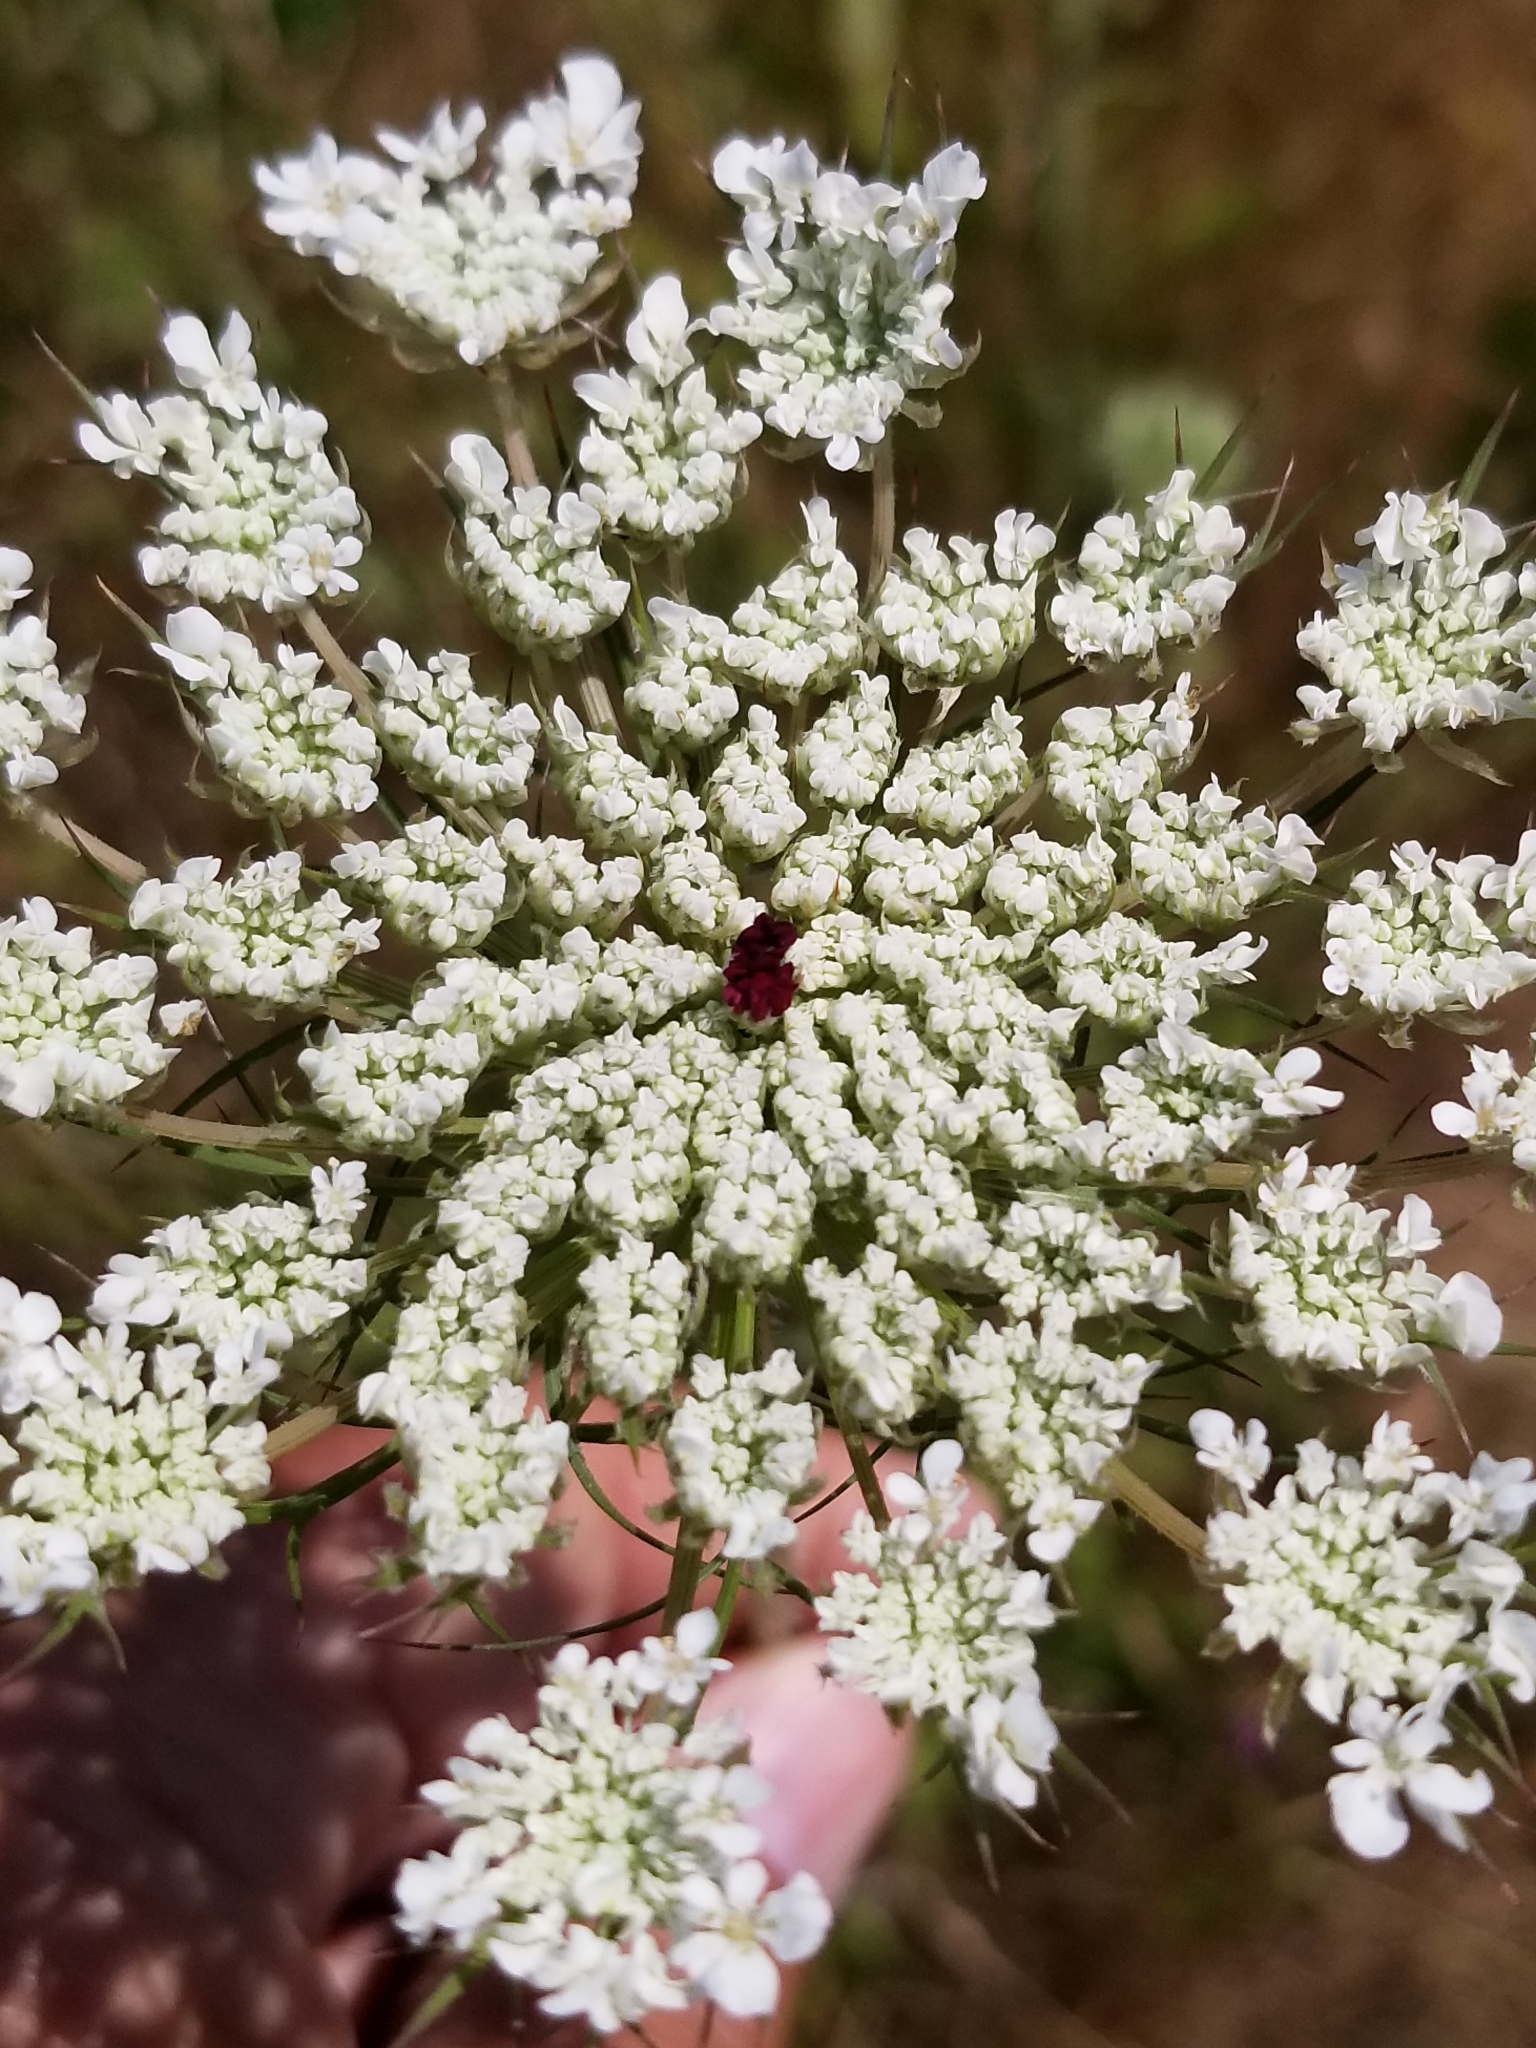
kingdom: Plantae
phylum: Tracheophyta
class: Magnoliopsida
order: Apiales
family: Apiaceae
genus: Daucus
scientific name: Daucus carota
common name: Wild carrot
